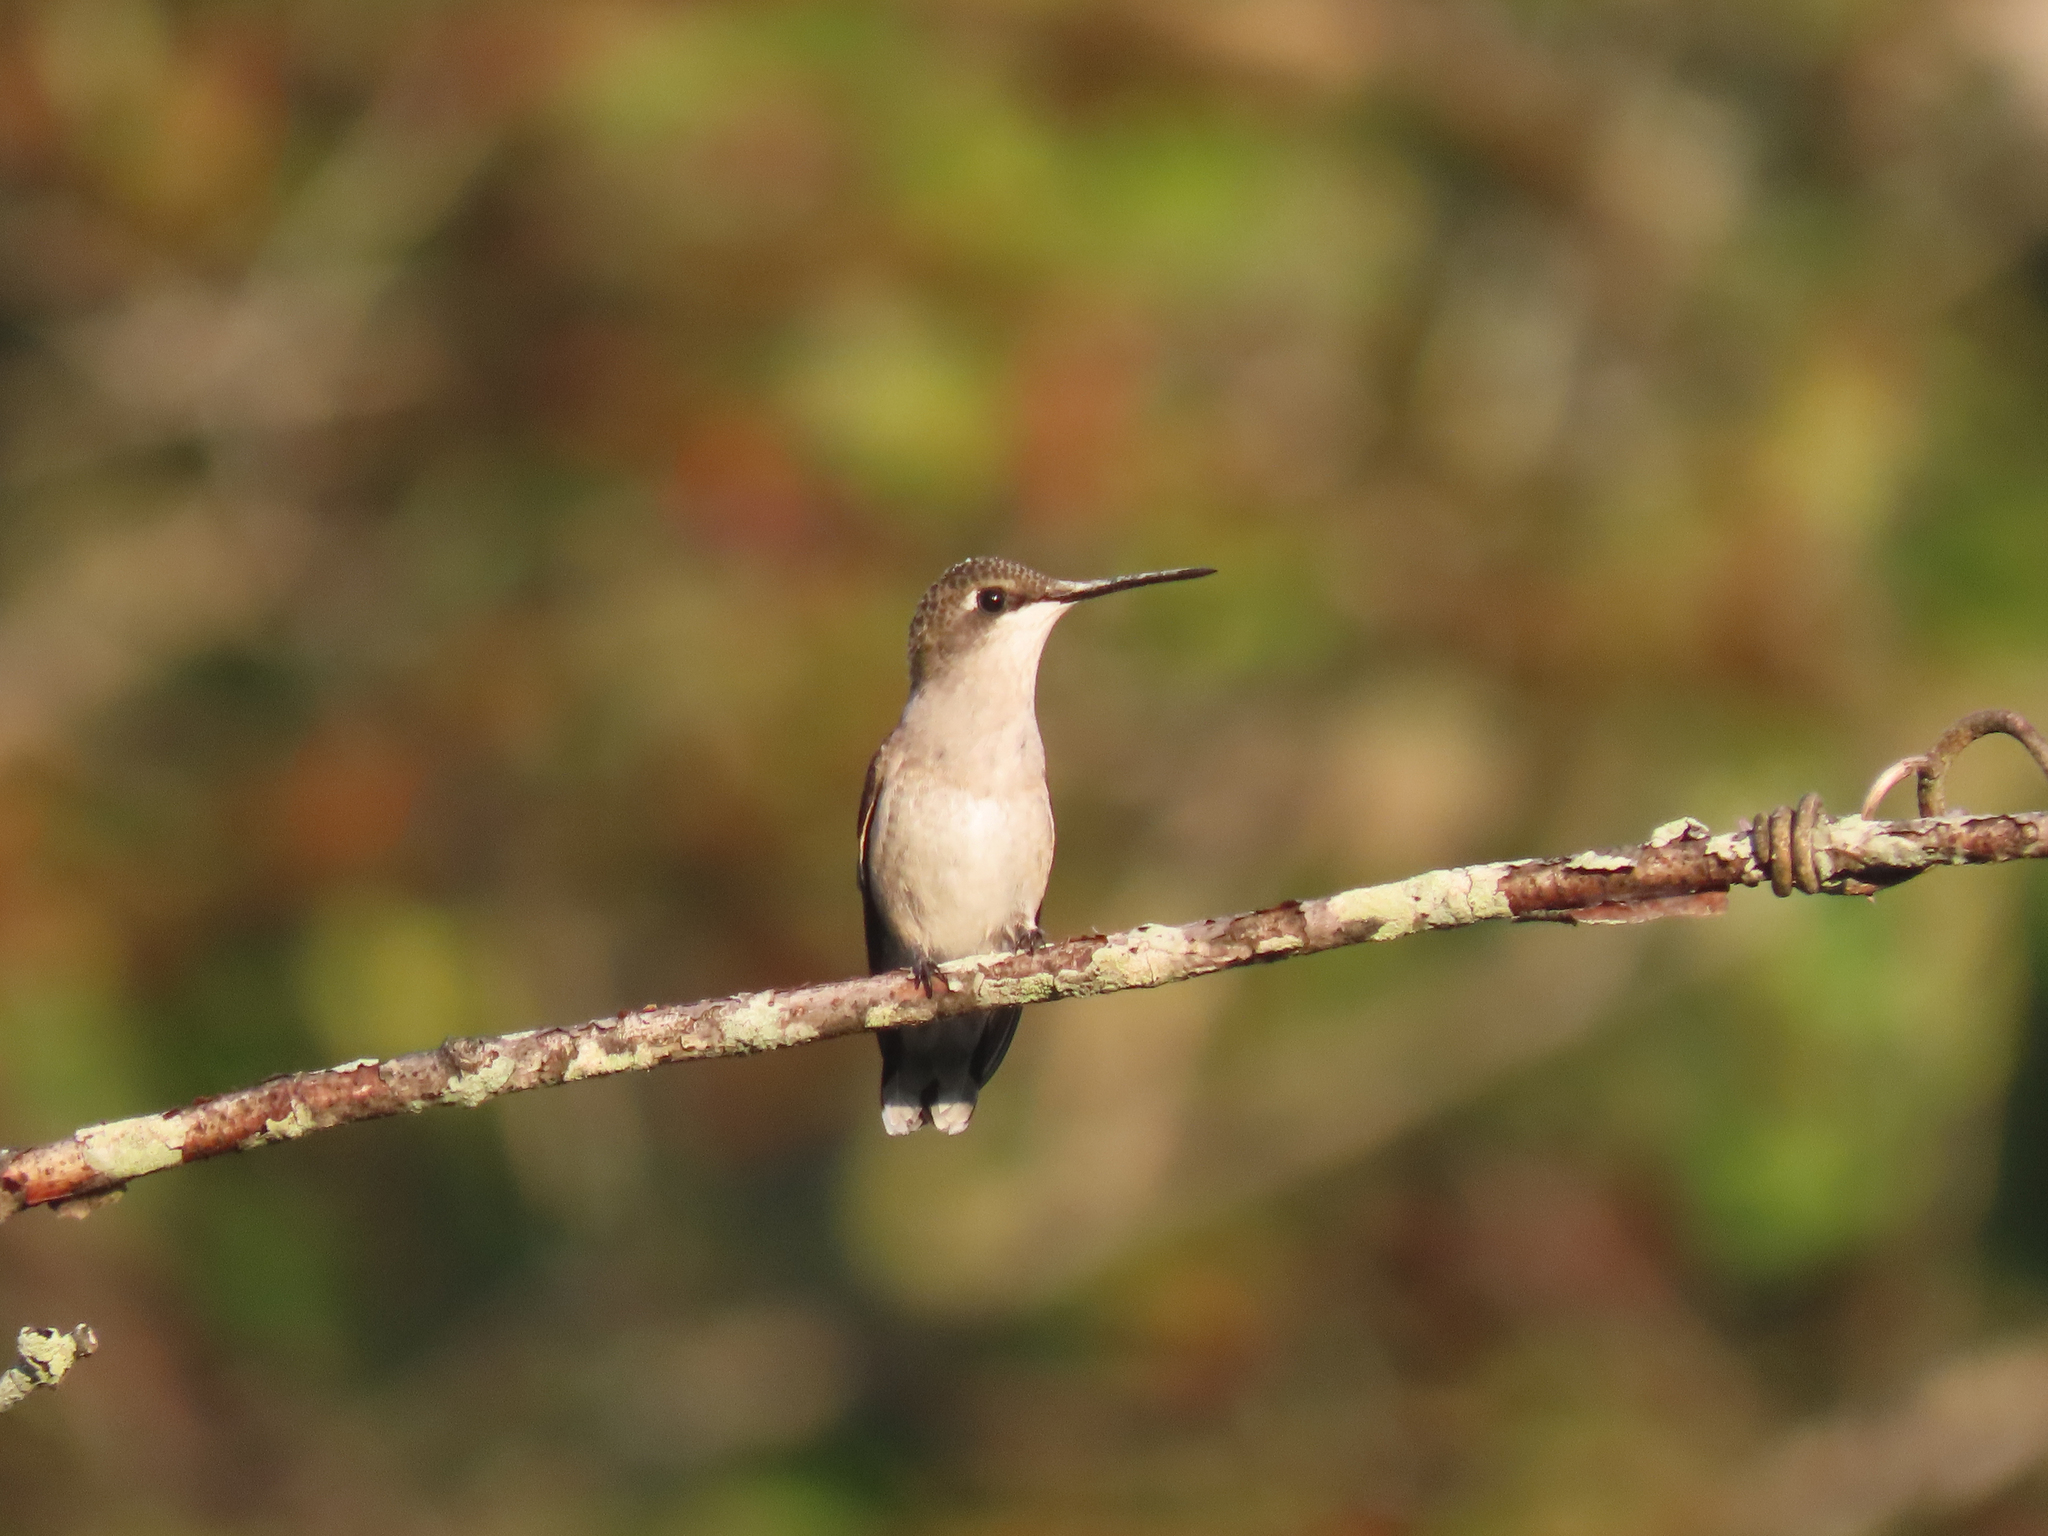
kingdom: Animalia
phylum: Chordata
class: Aves
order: Apodiformes
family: Trochilidae
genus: Archilochus
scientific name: Archilochus colubris
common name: Ruby-throated hummingbird
